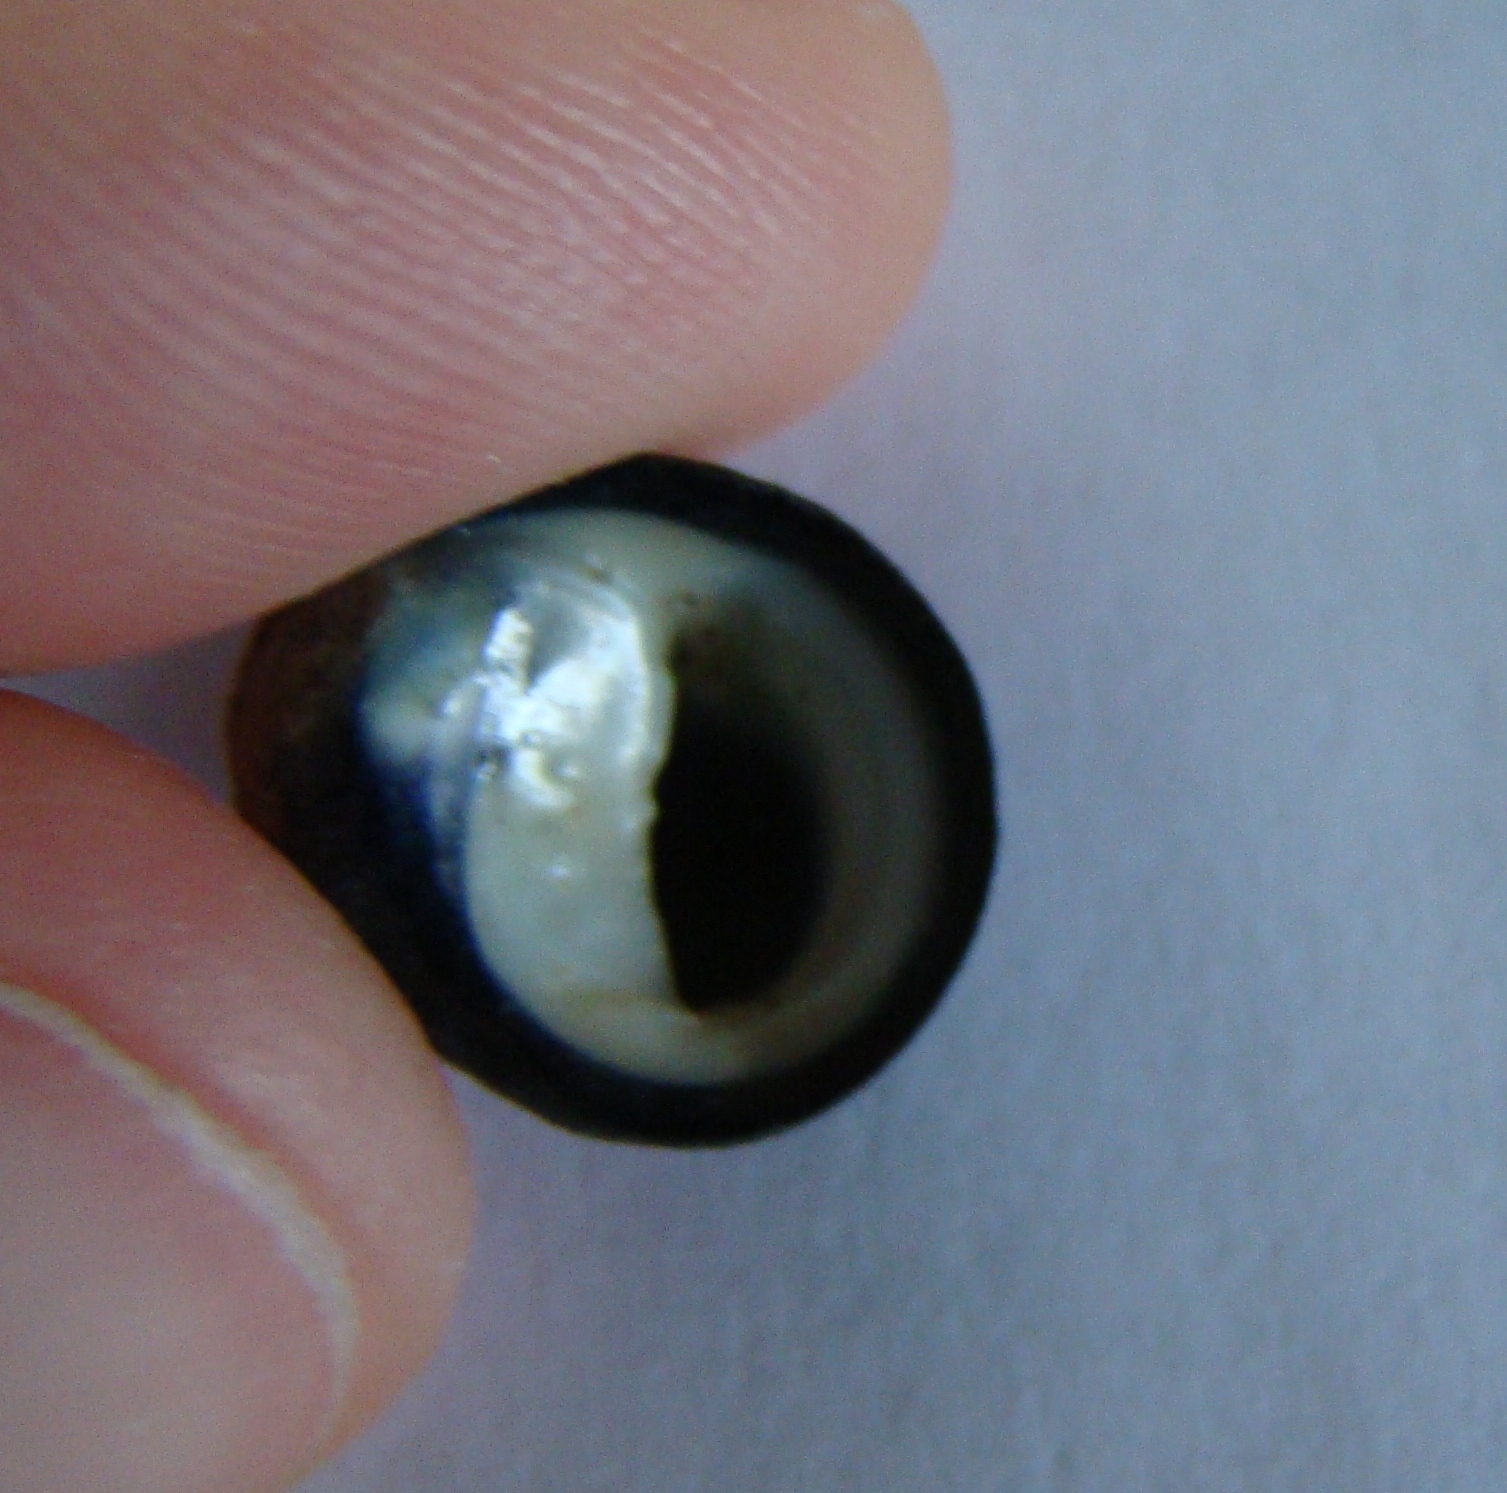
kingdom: Animalia
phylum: Mollusca
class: Gastropoda
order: Cycloneritida
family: Neritidae
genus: Nerita
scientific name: Nerita melanotragus
